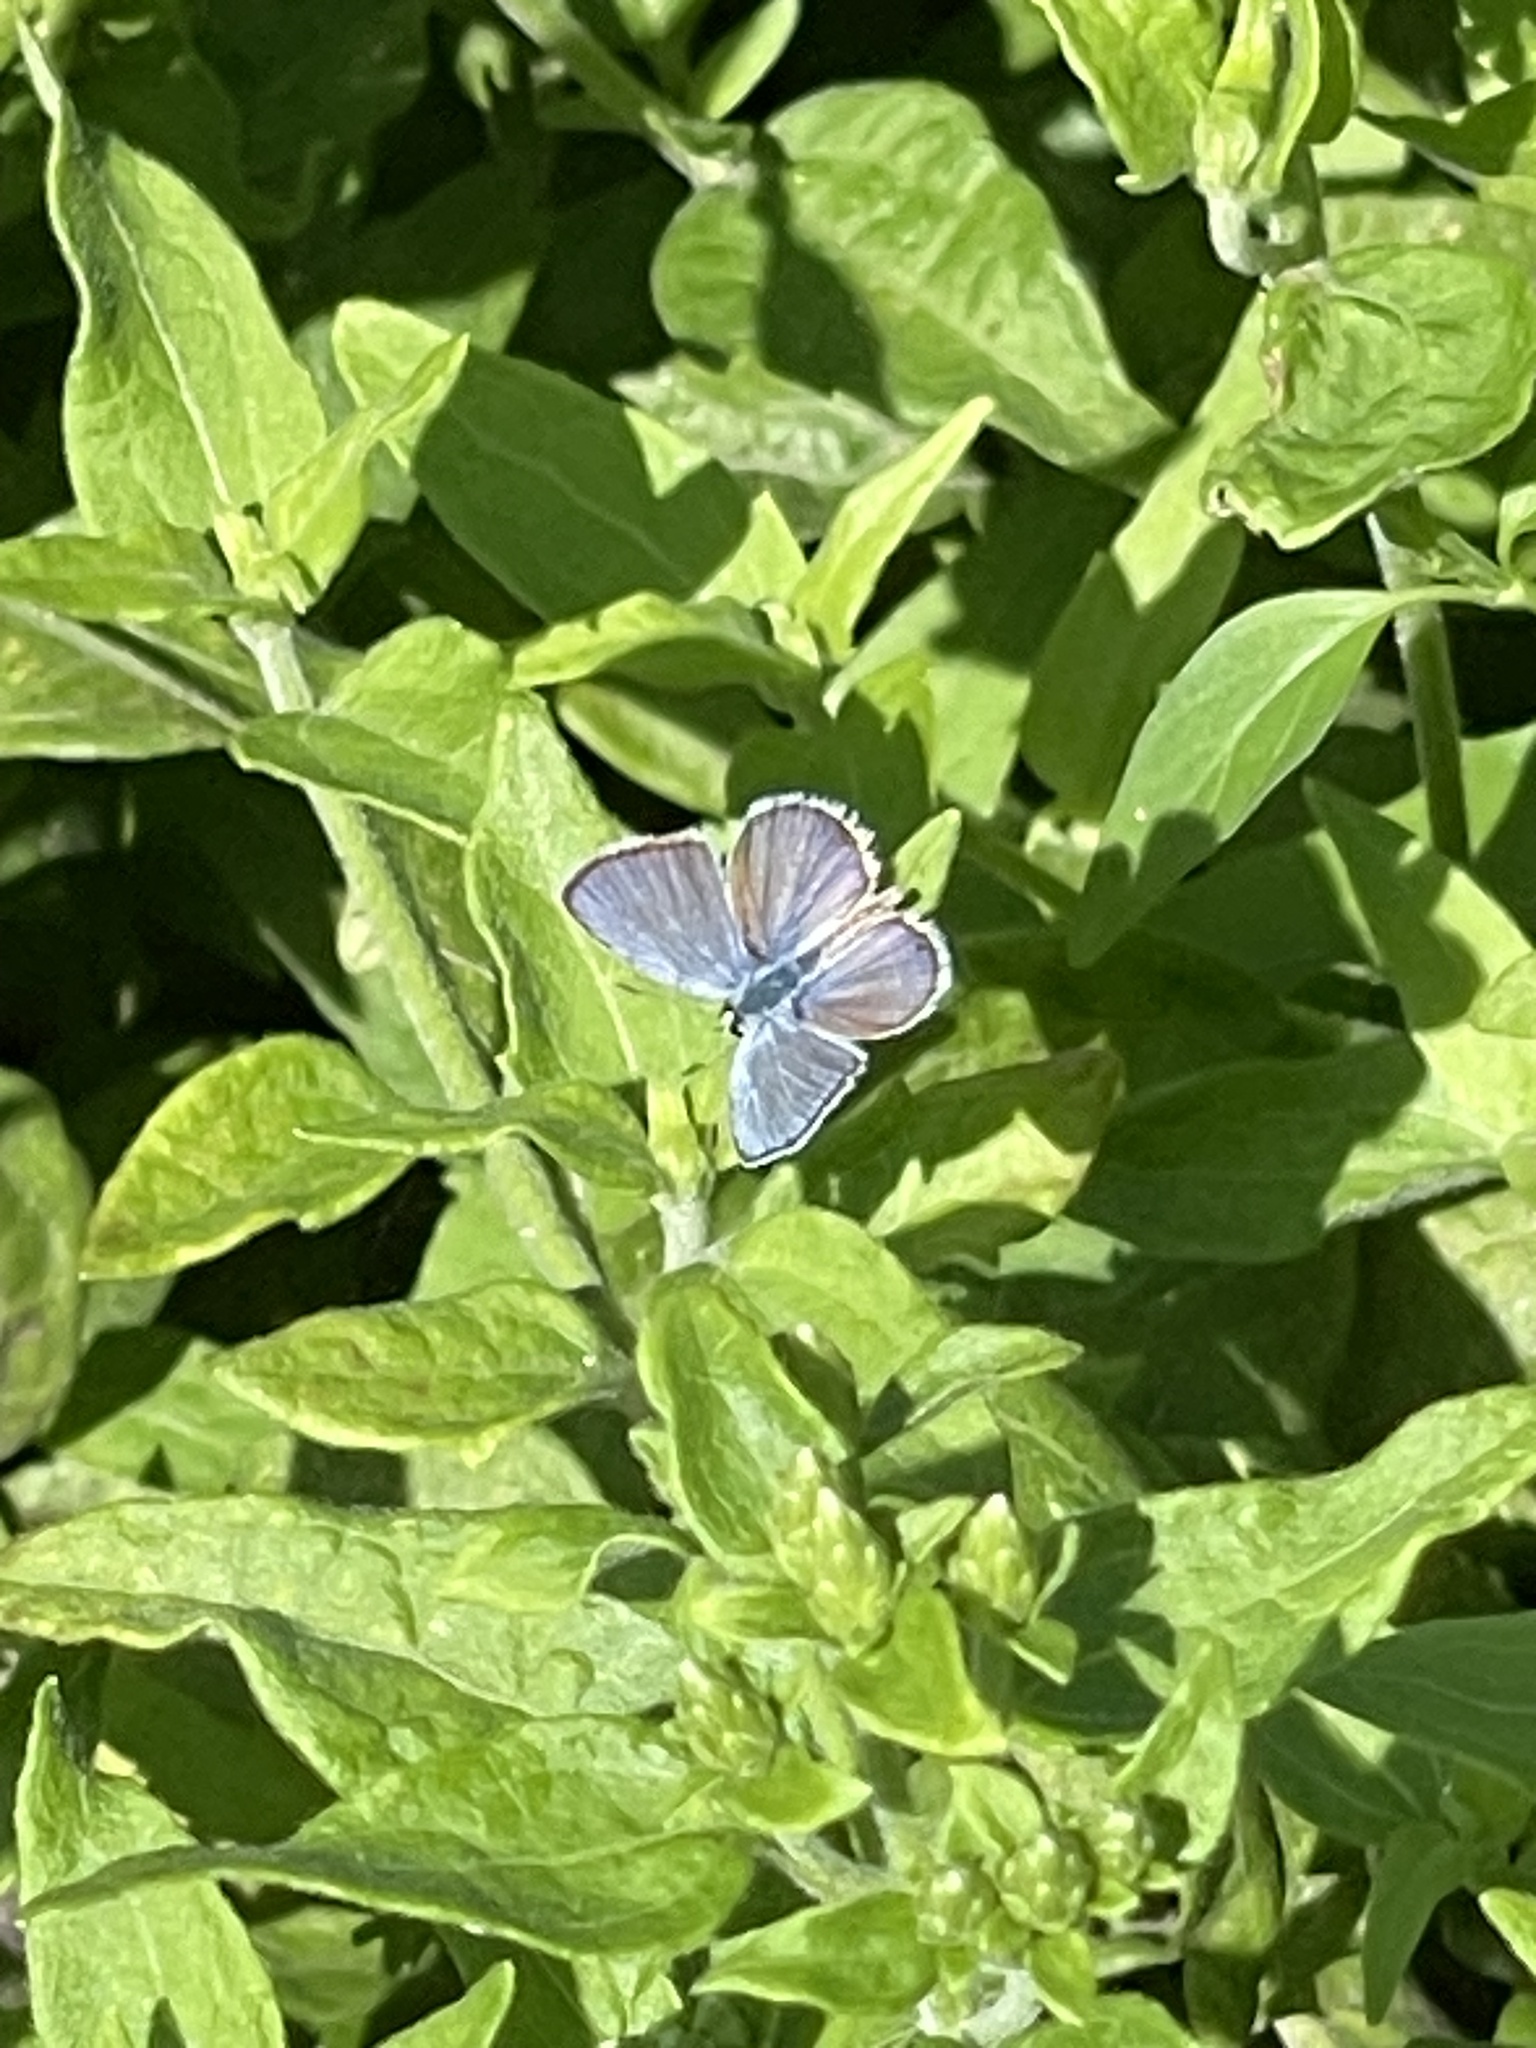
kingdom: Animalia
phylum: Arthropoda
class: Insecta
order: Lepidoptera
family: Lycaenidae
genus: Hemiargus
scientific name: Hemiargus ceraunus
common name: Ceraunus blue
